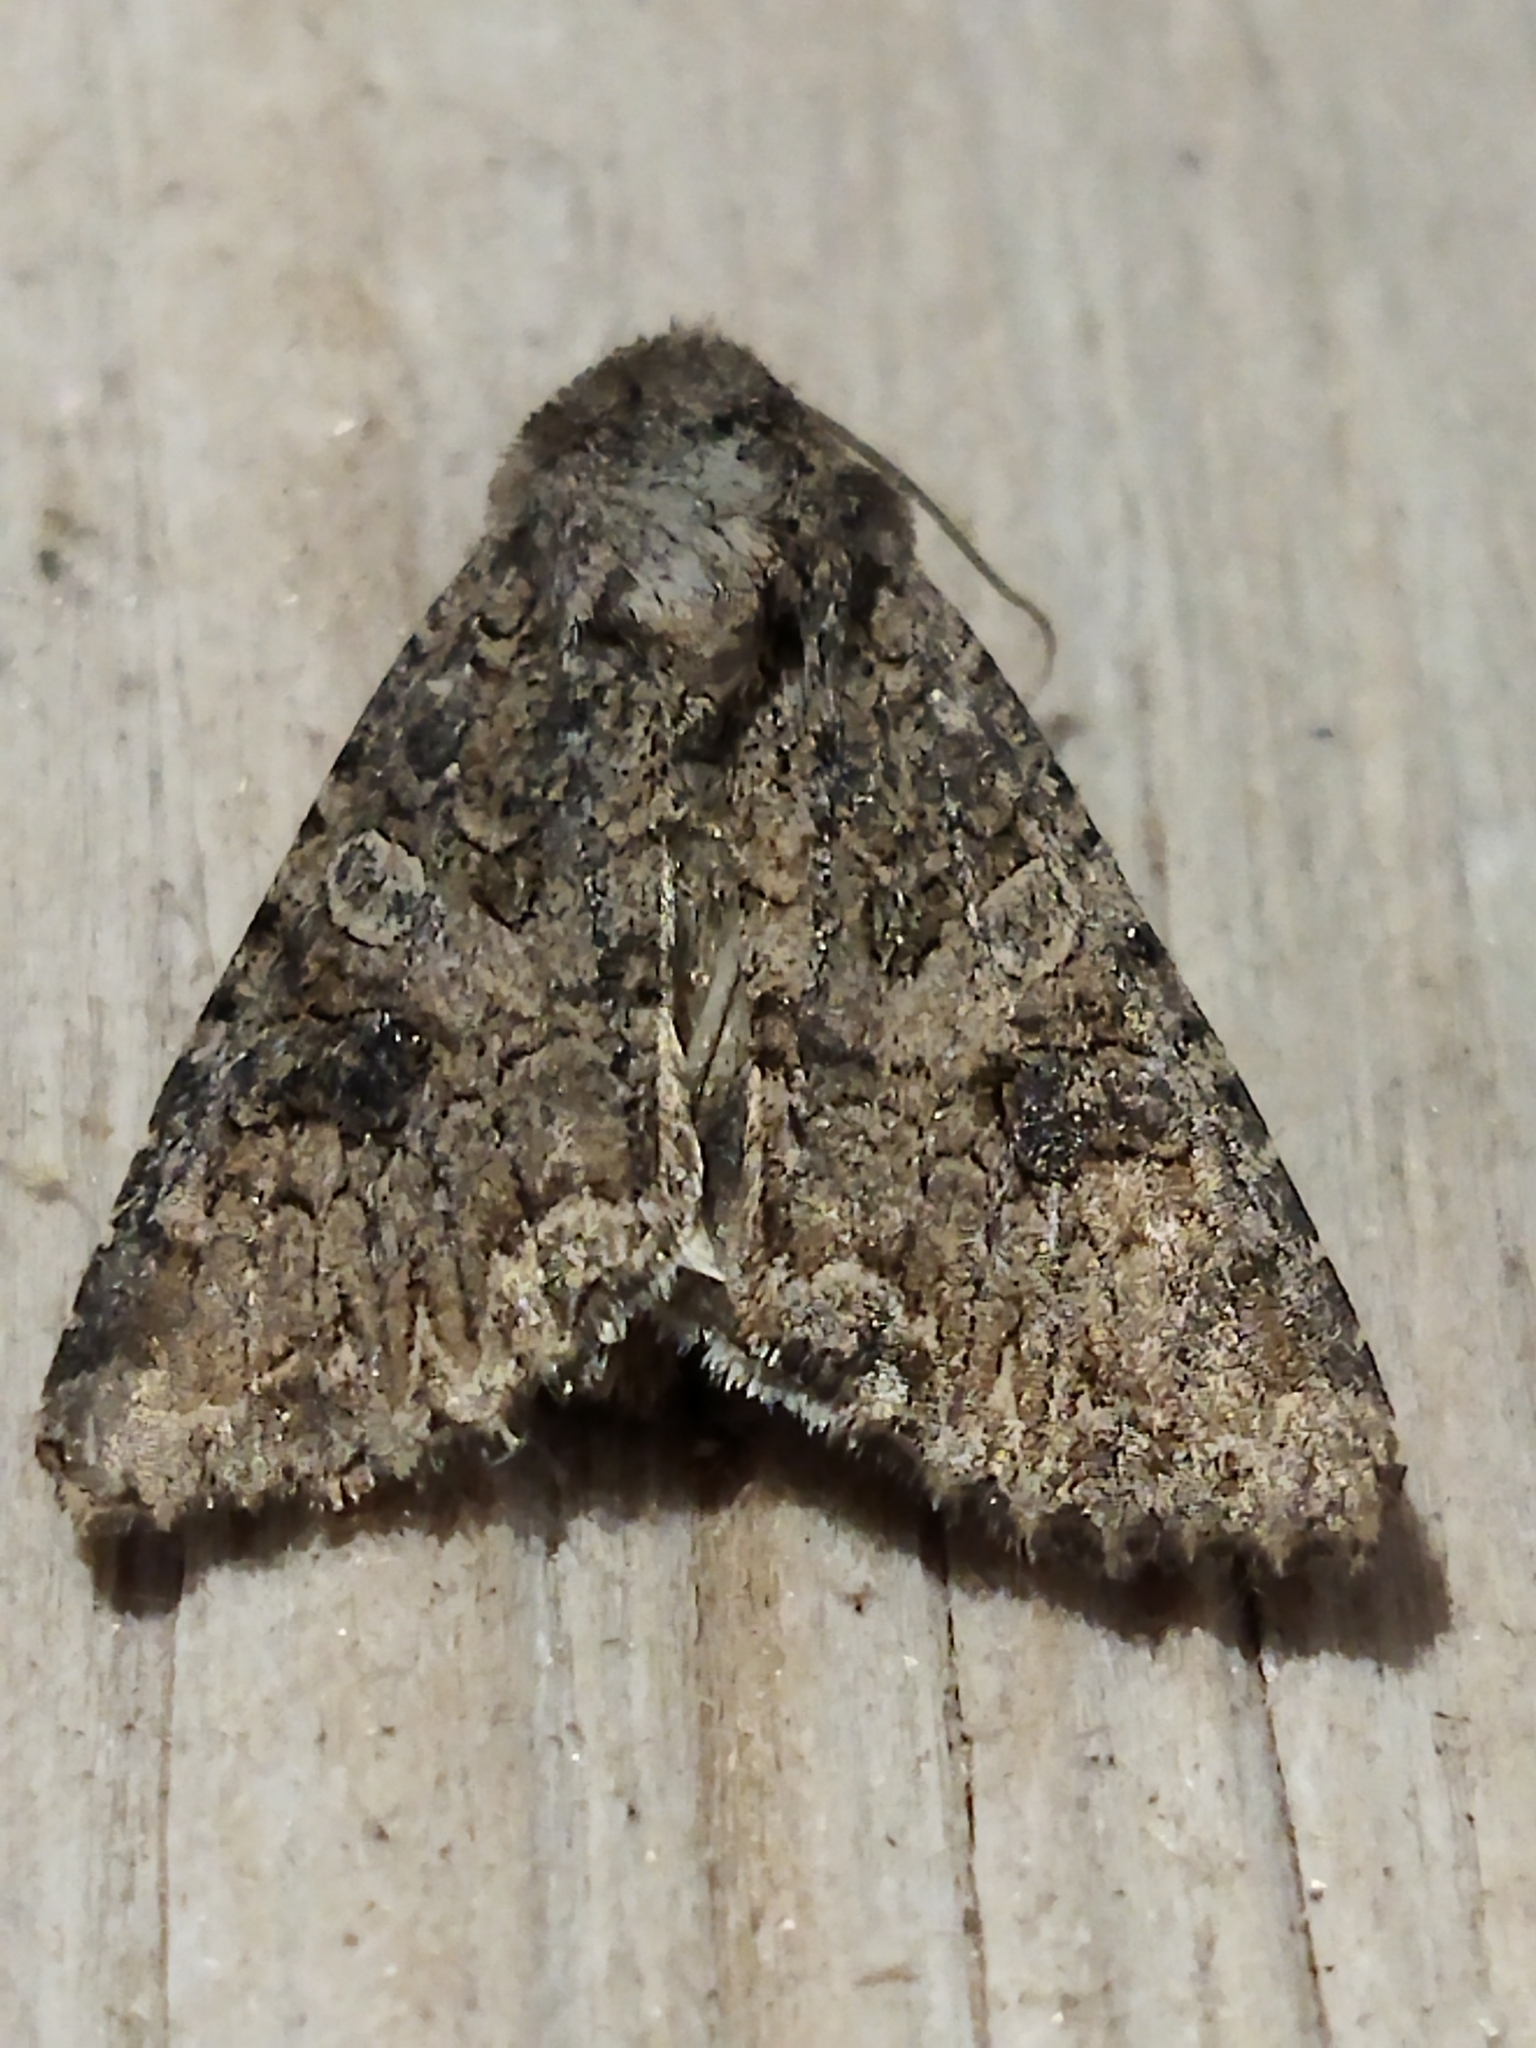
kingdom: Animalia
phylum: Arthropoda
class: Insecta
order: Lepidoptera
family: Noctuidae
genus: Anarta
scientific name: Anarta trifolii
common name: Clover cutworm moth
